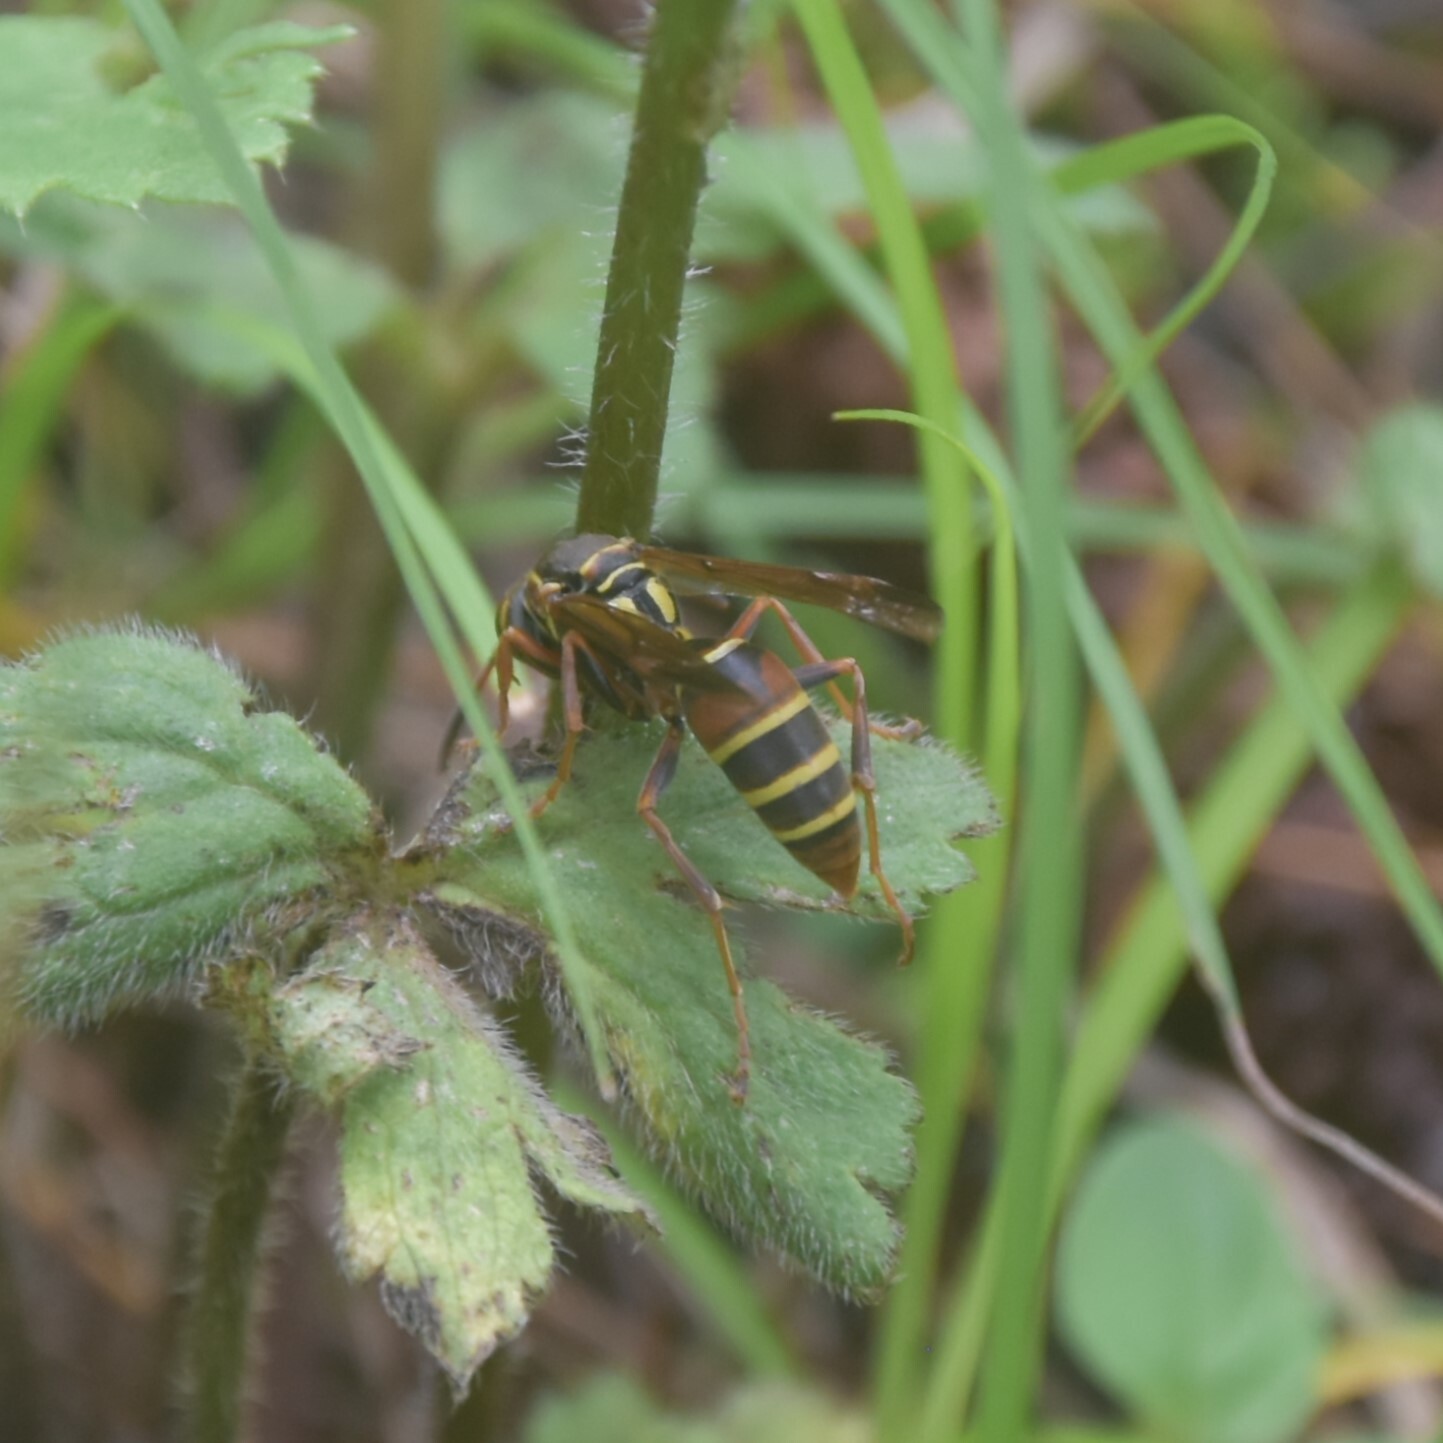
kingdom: Animalia
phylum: Arthropoda
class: Insecta
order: Hymenoptera
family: Eumenidae
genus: Knemodynerus
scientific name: Knemodynerus multimaculatus
